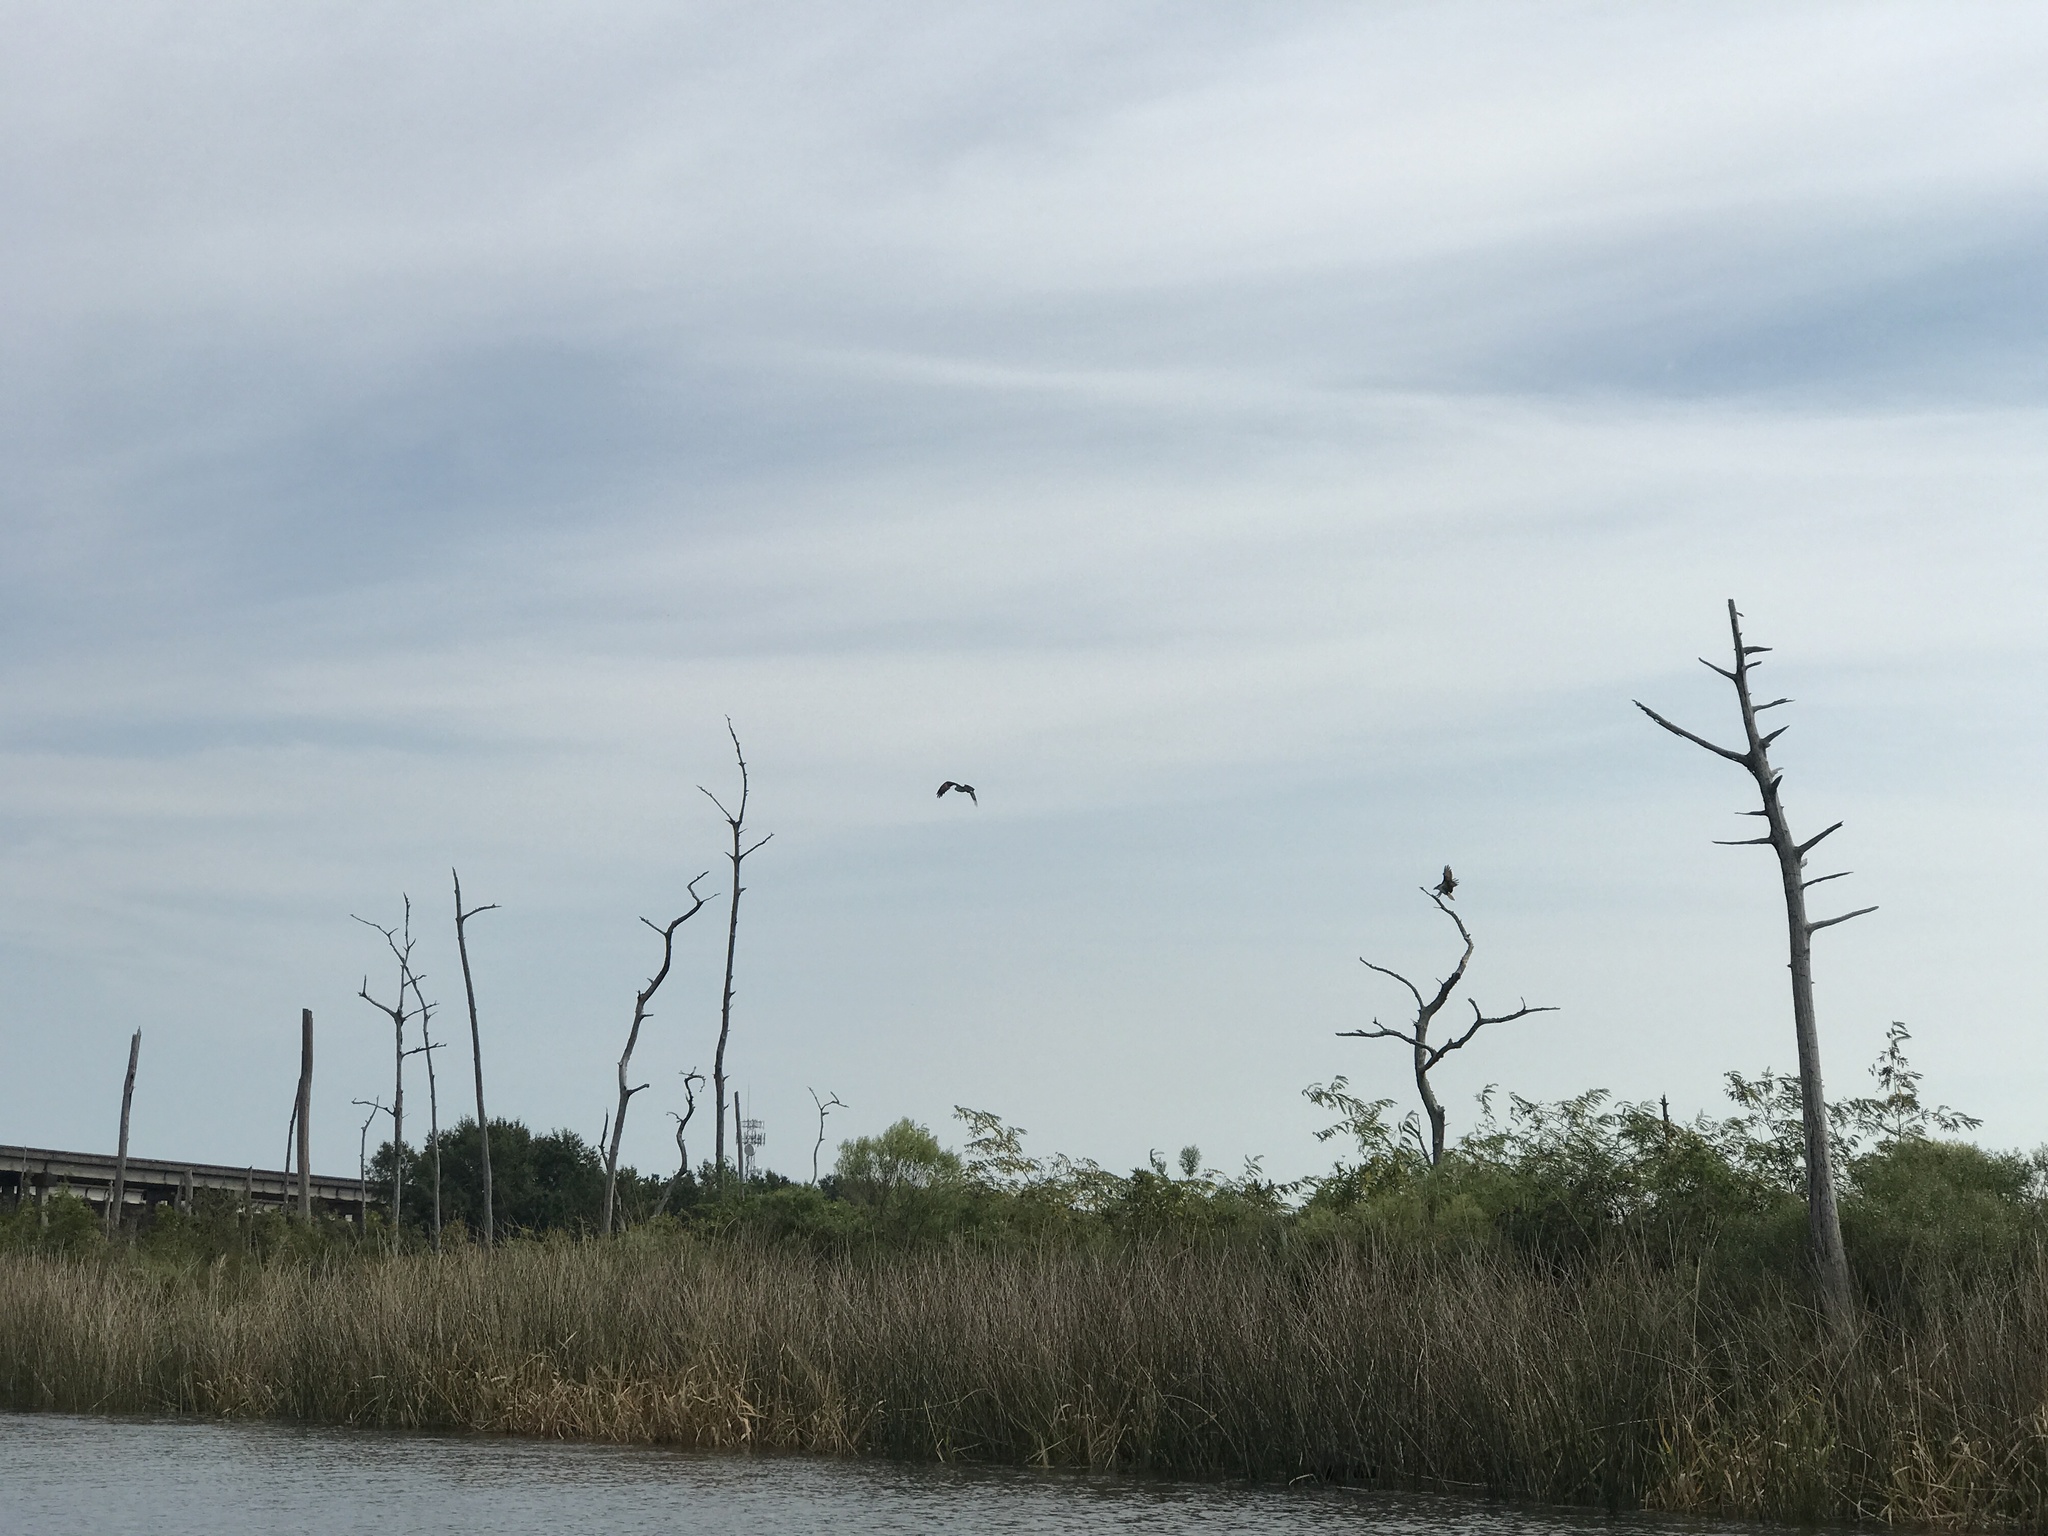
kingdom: Animalia
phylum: Chordata
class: Aves
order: Accipitriformes
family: Pandionidae
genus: Pandion
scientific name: Pandion haliaetus
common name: Osprey
